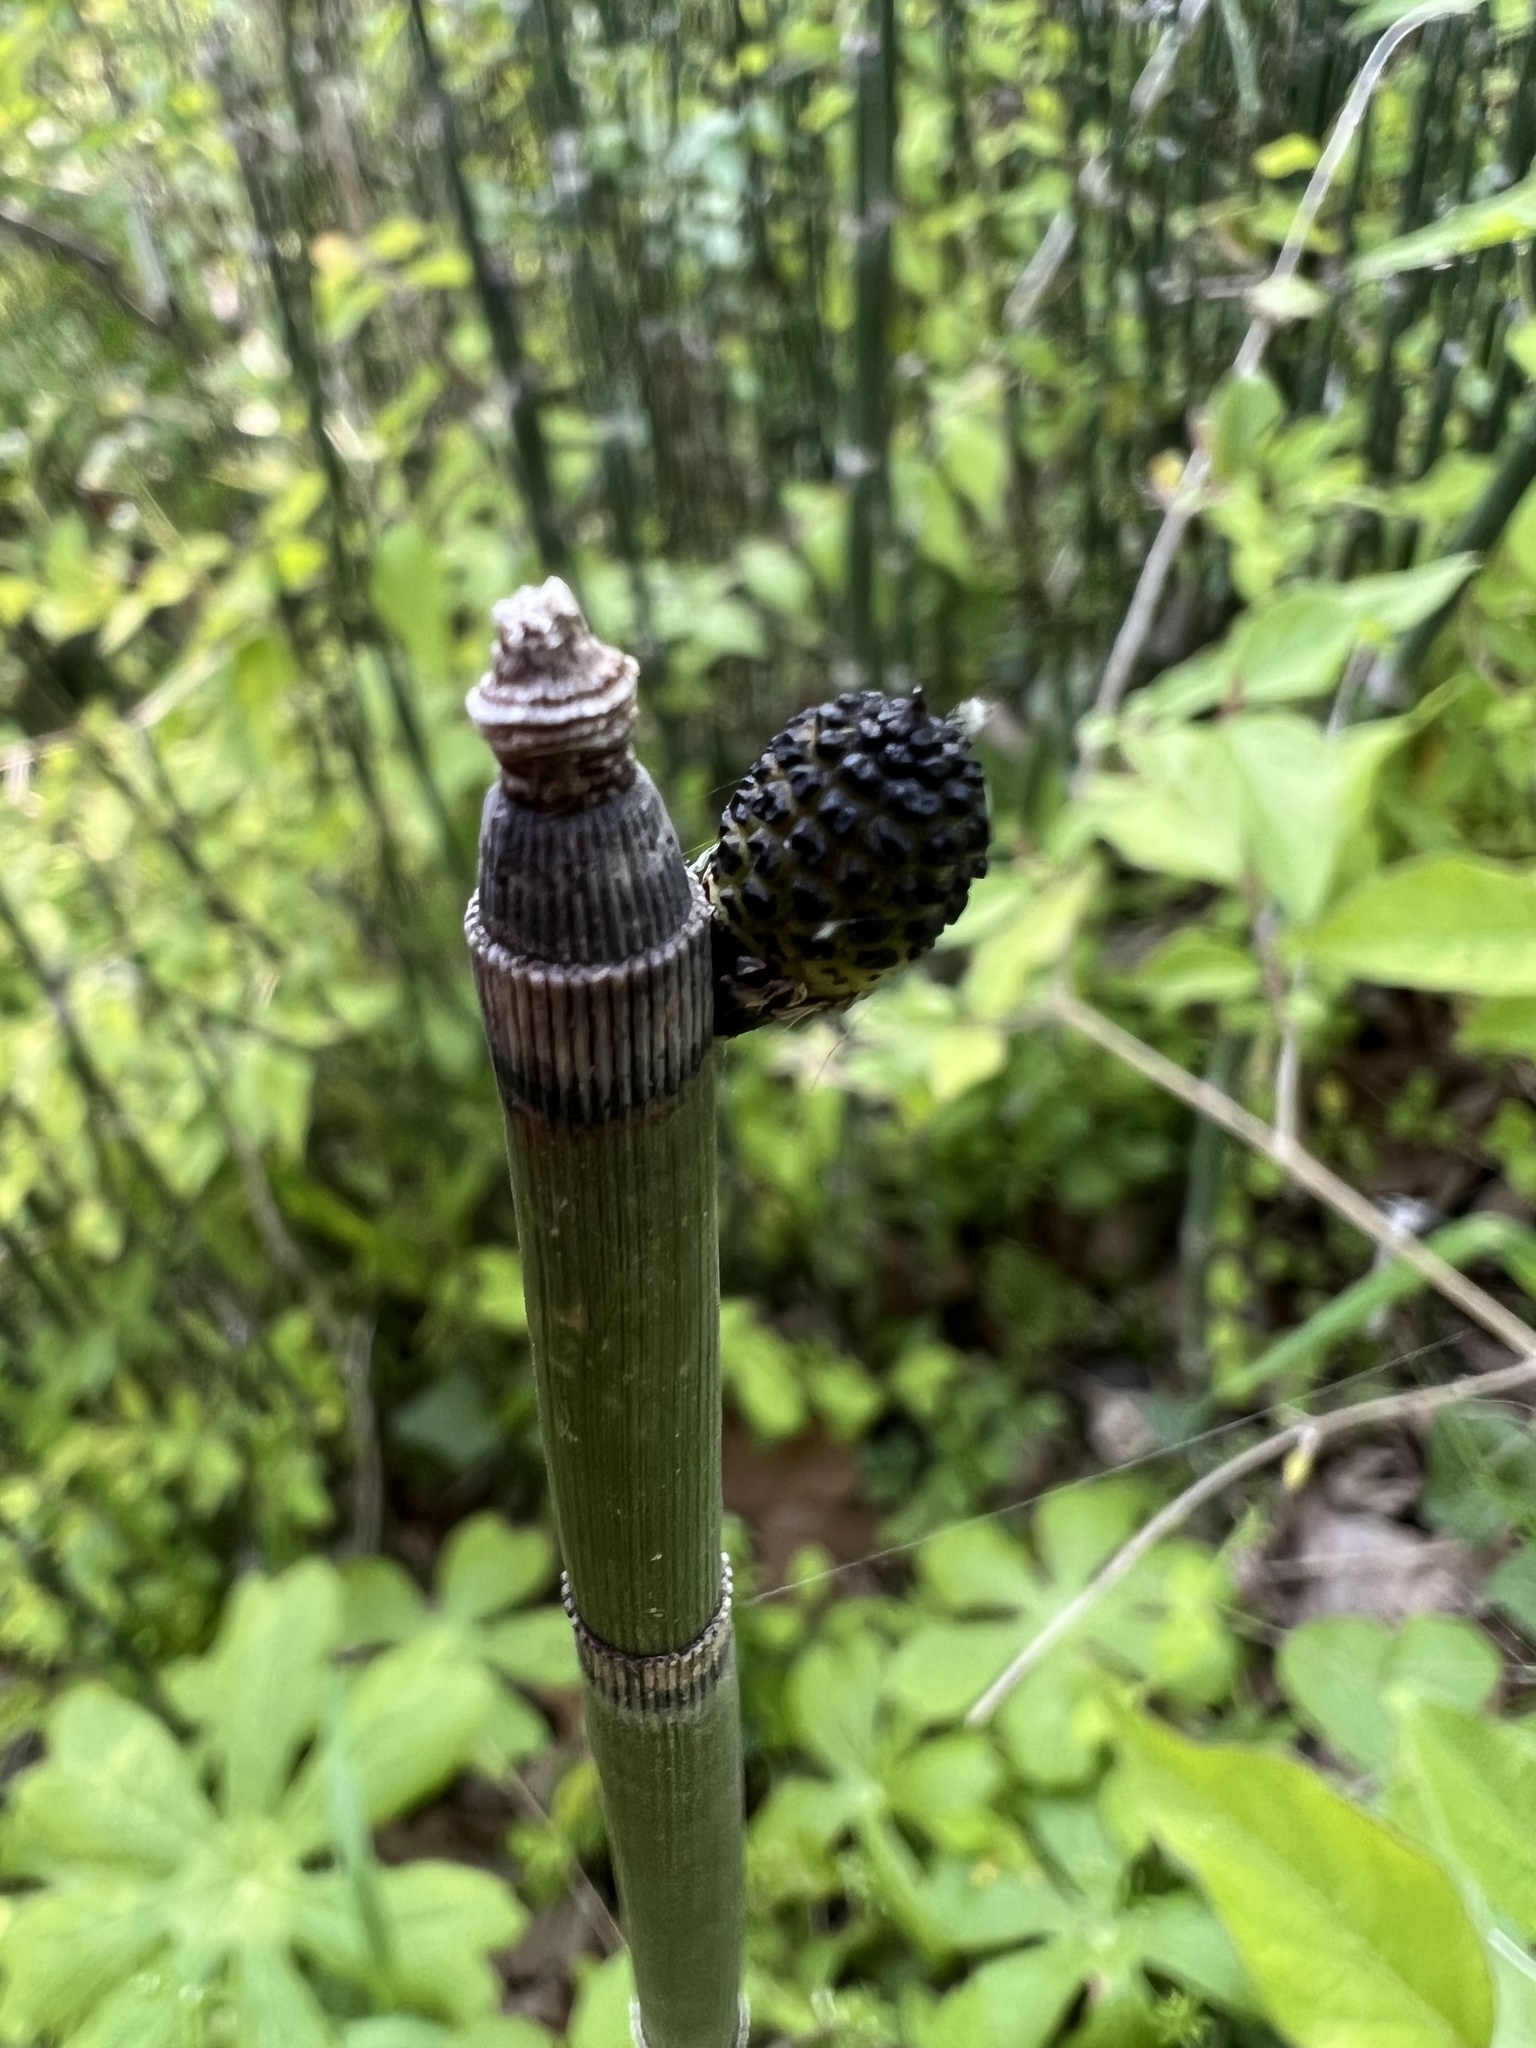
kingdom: Plantae
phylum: Tracheophyta
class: Polypodiopsida
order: Equisetales
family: Equisetaceae
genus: Equisetum
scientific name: Equisetum praealtum
